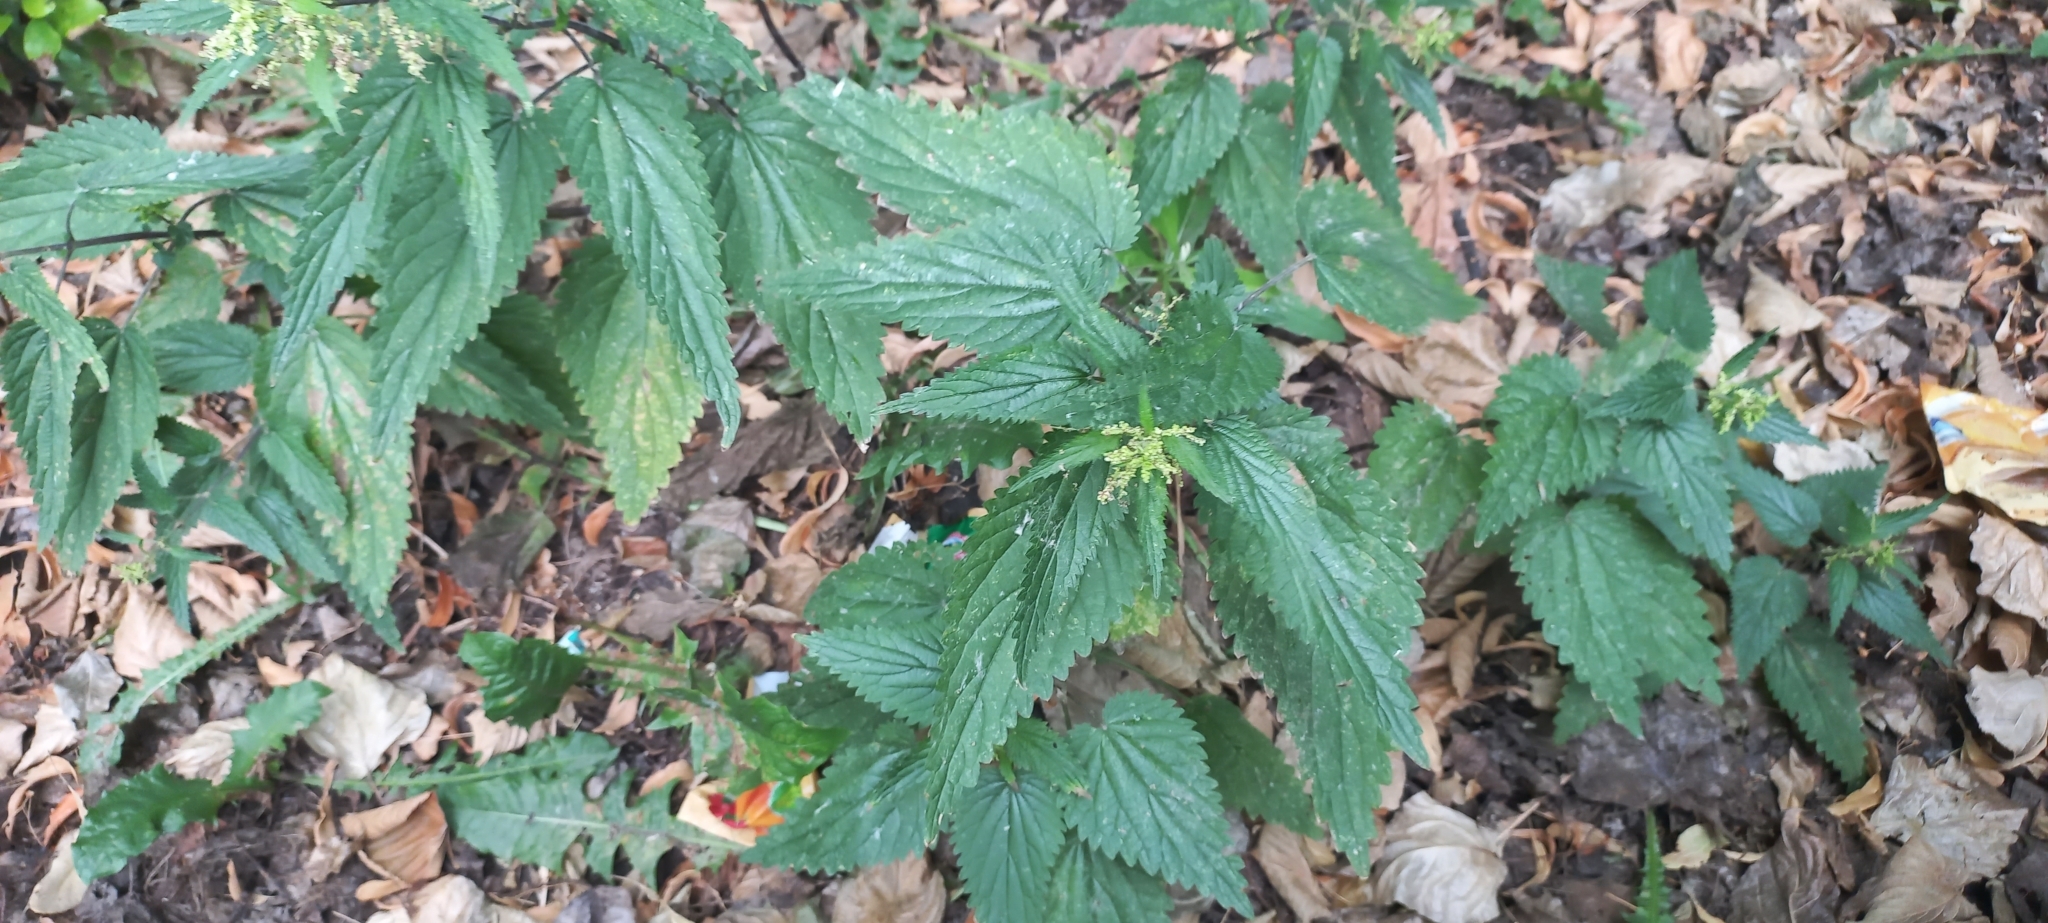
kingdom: Plantae
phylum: Tracheophyta
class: Magnoliopsida
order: Rosales
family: Urticaceae
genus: Urtica
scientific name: Urtica dioica
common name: Common nettle
